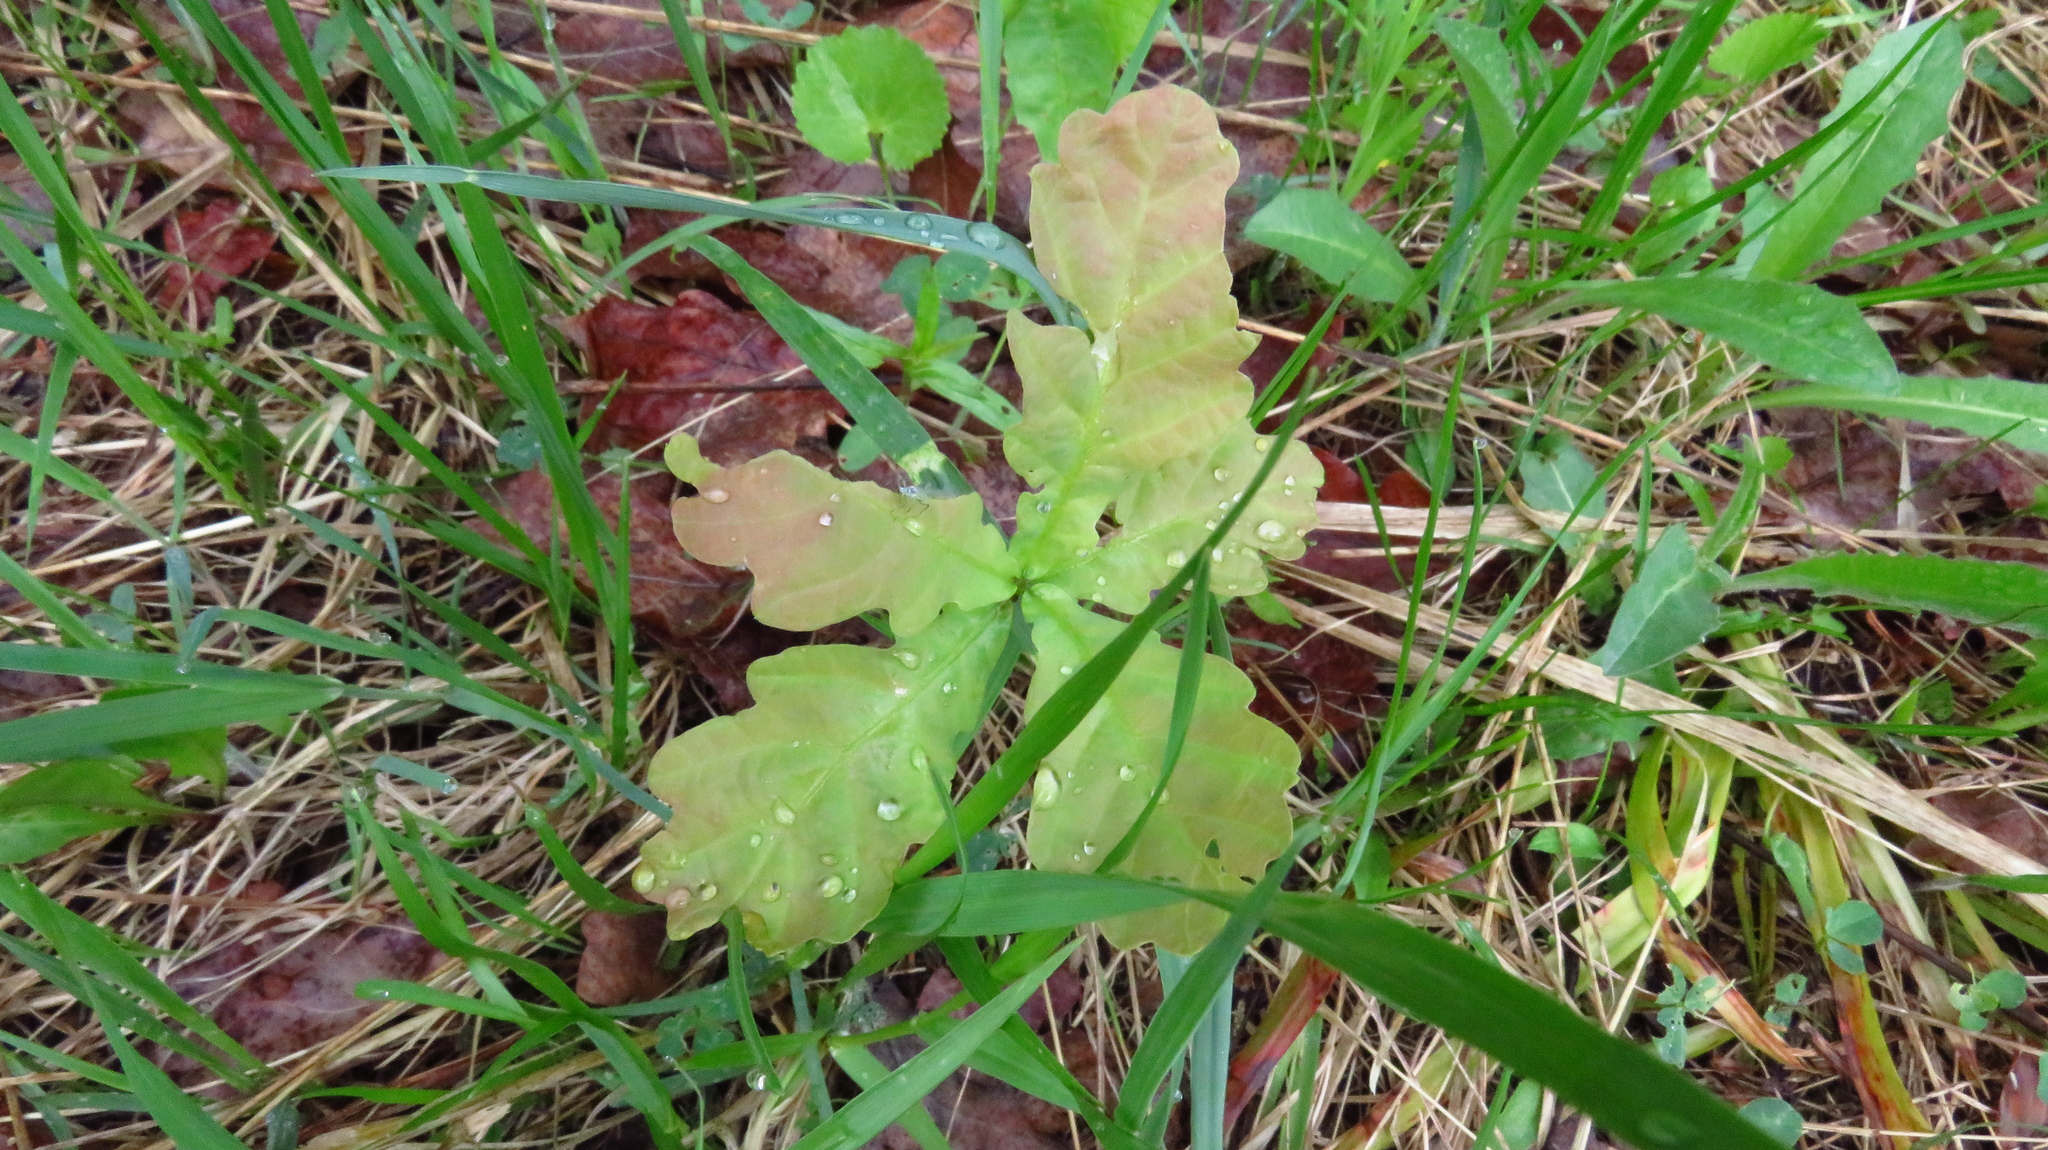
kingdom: Plantae
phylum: Tracheophyta
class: Magnoliopsida
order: Fagales
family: Fagaceae
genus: Quercus
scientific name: Quercus robur
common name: Pedunculate oak
